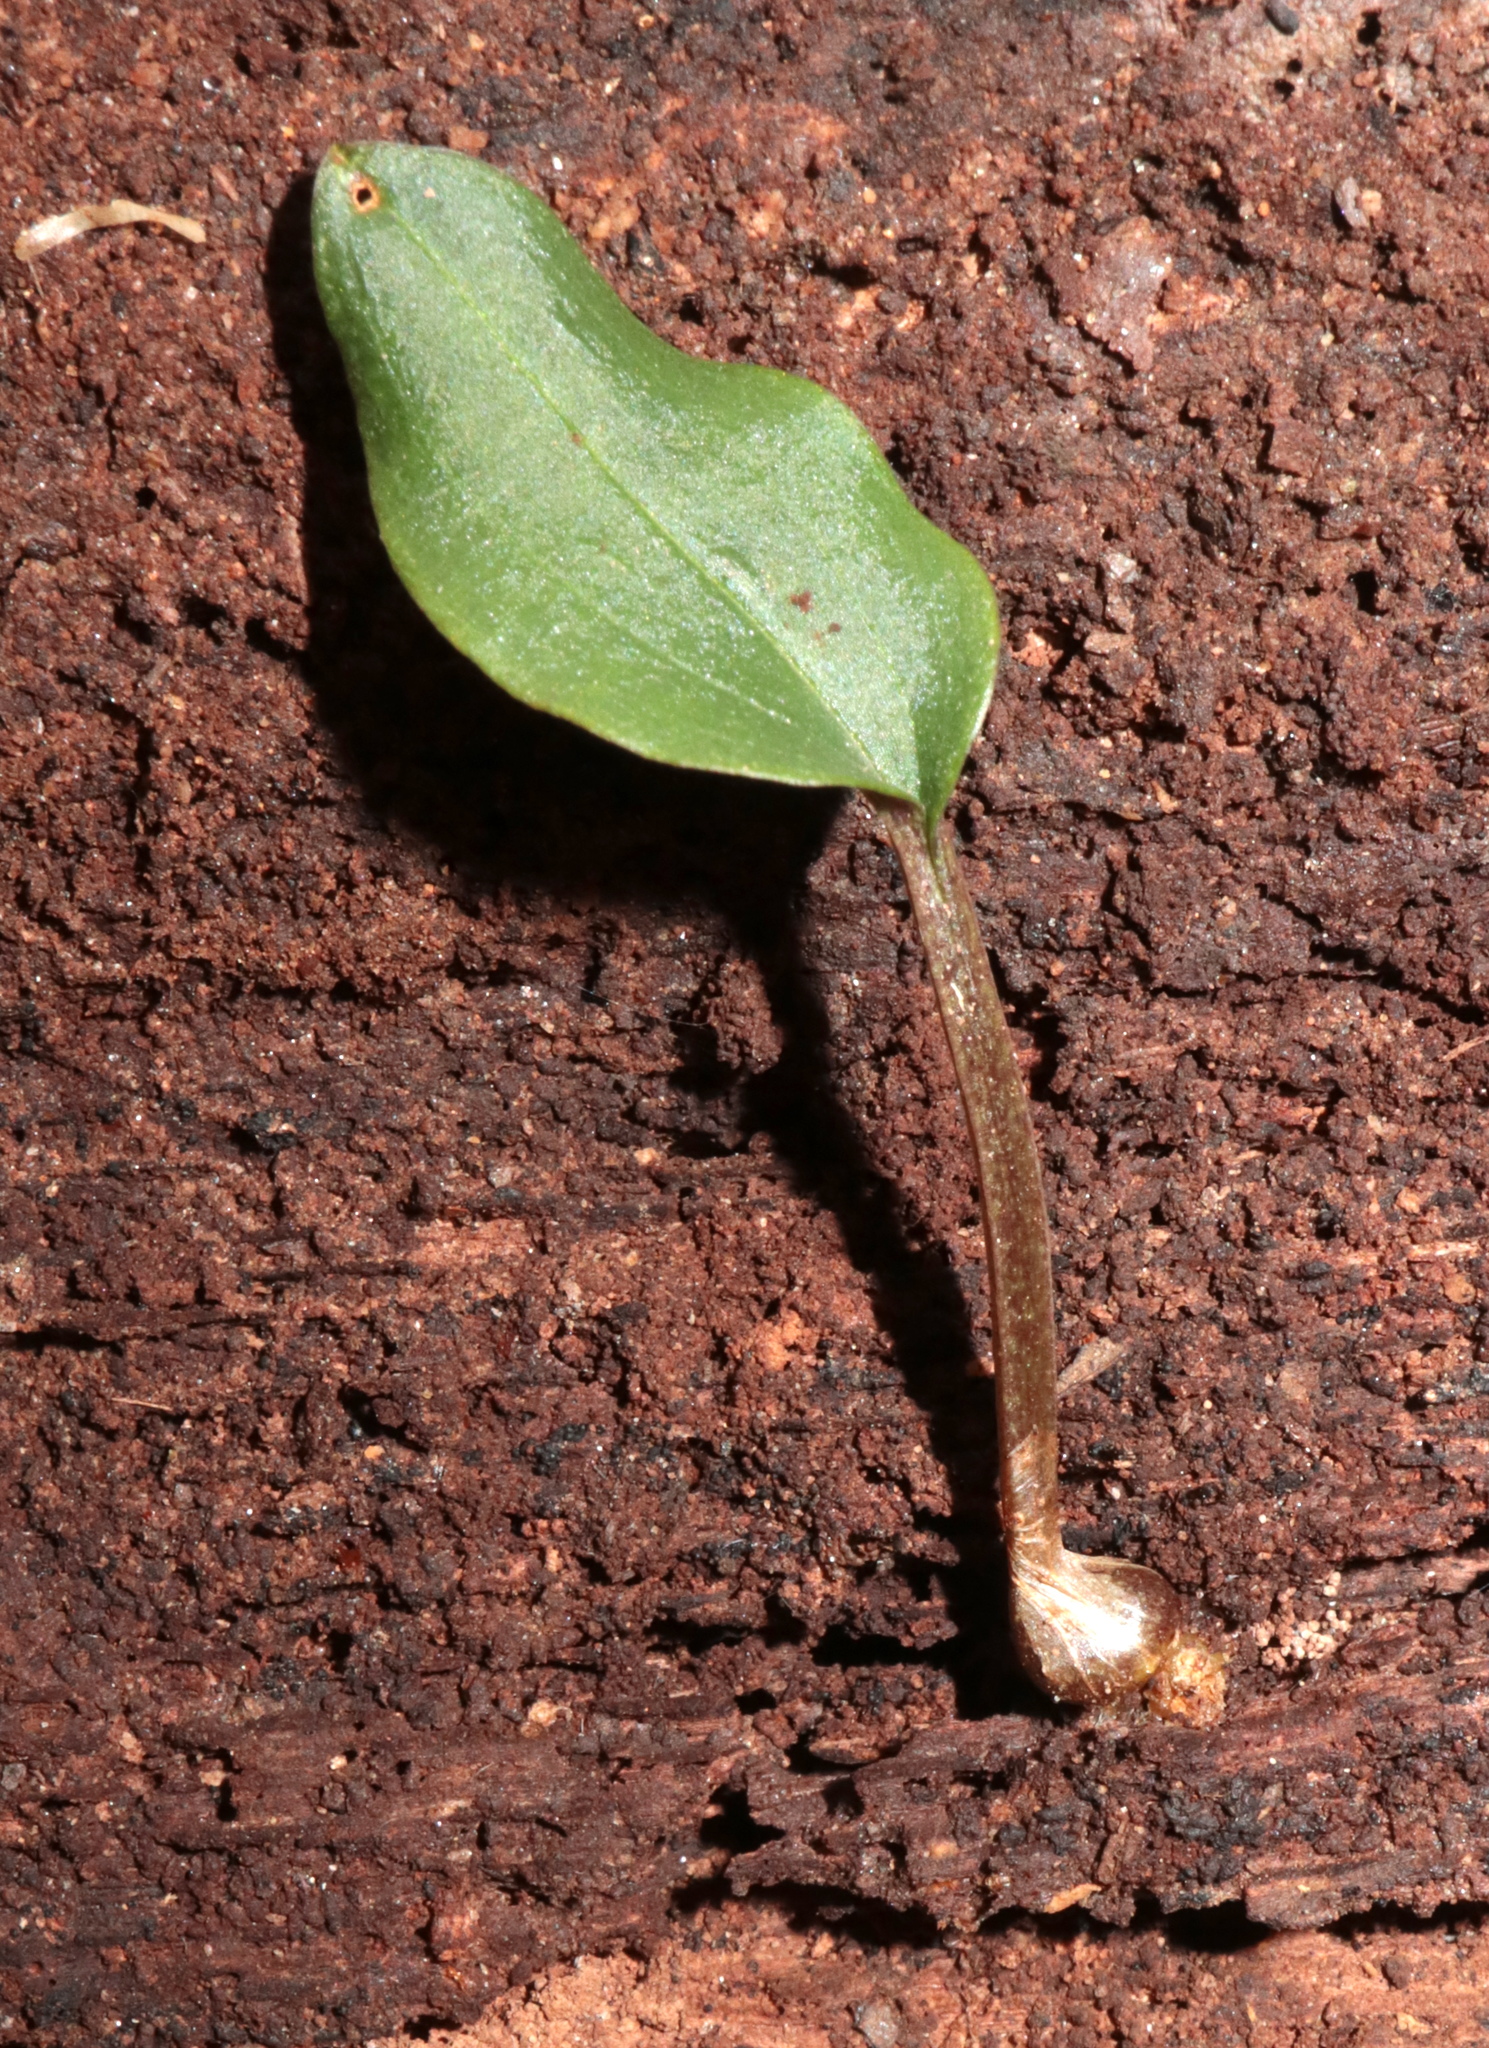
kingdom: Plantae
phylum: Tracheophyta
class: Liliopsida
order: Asparagales
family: Orchidaceae
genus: Tipularia
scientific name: Tipularia discolor
